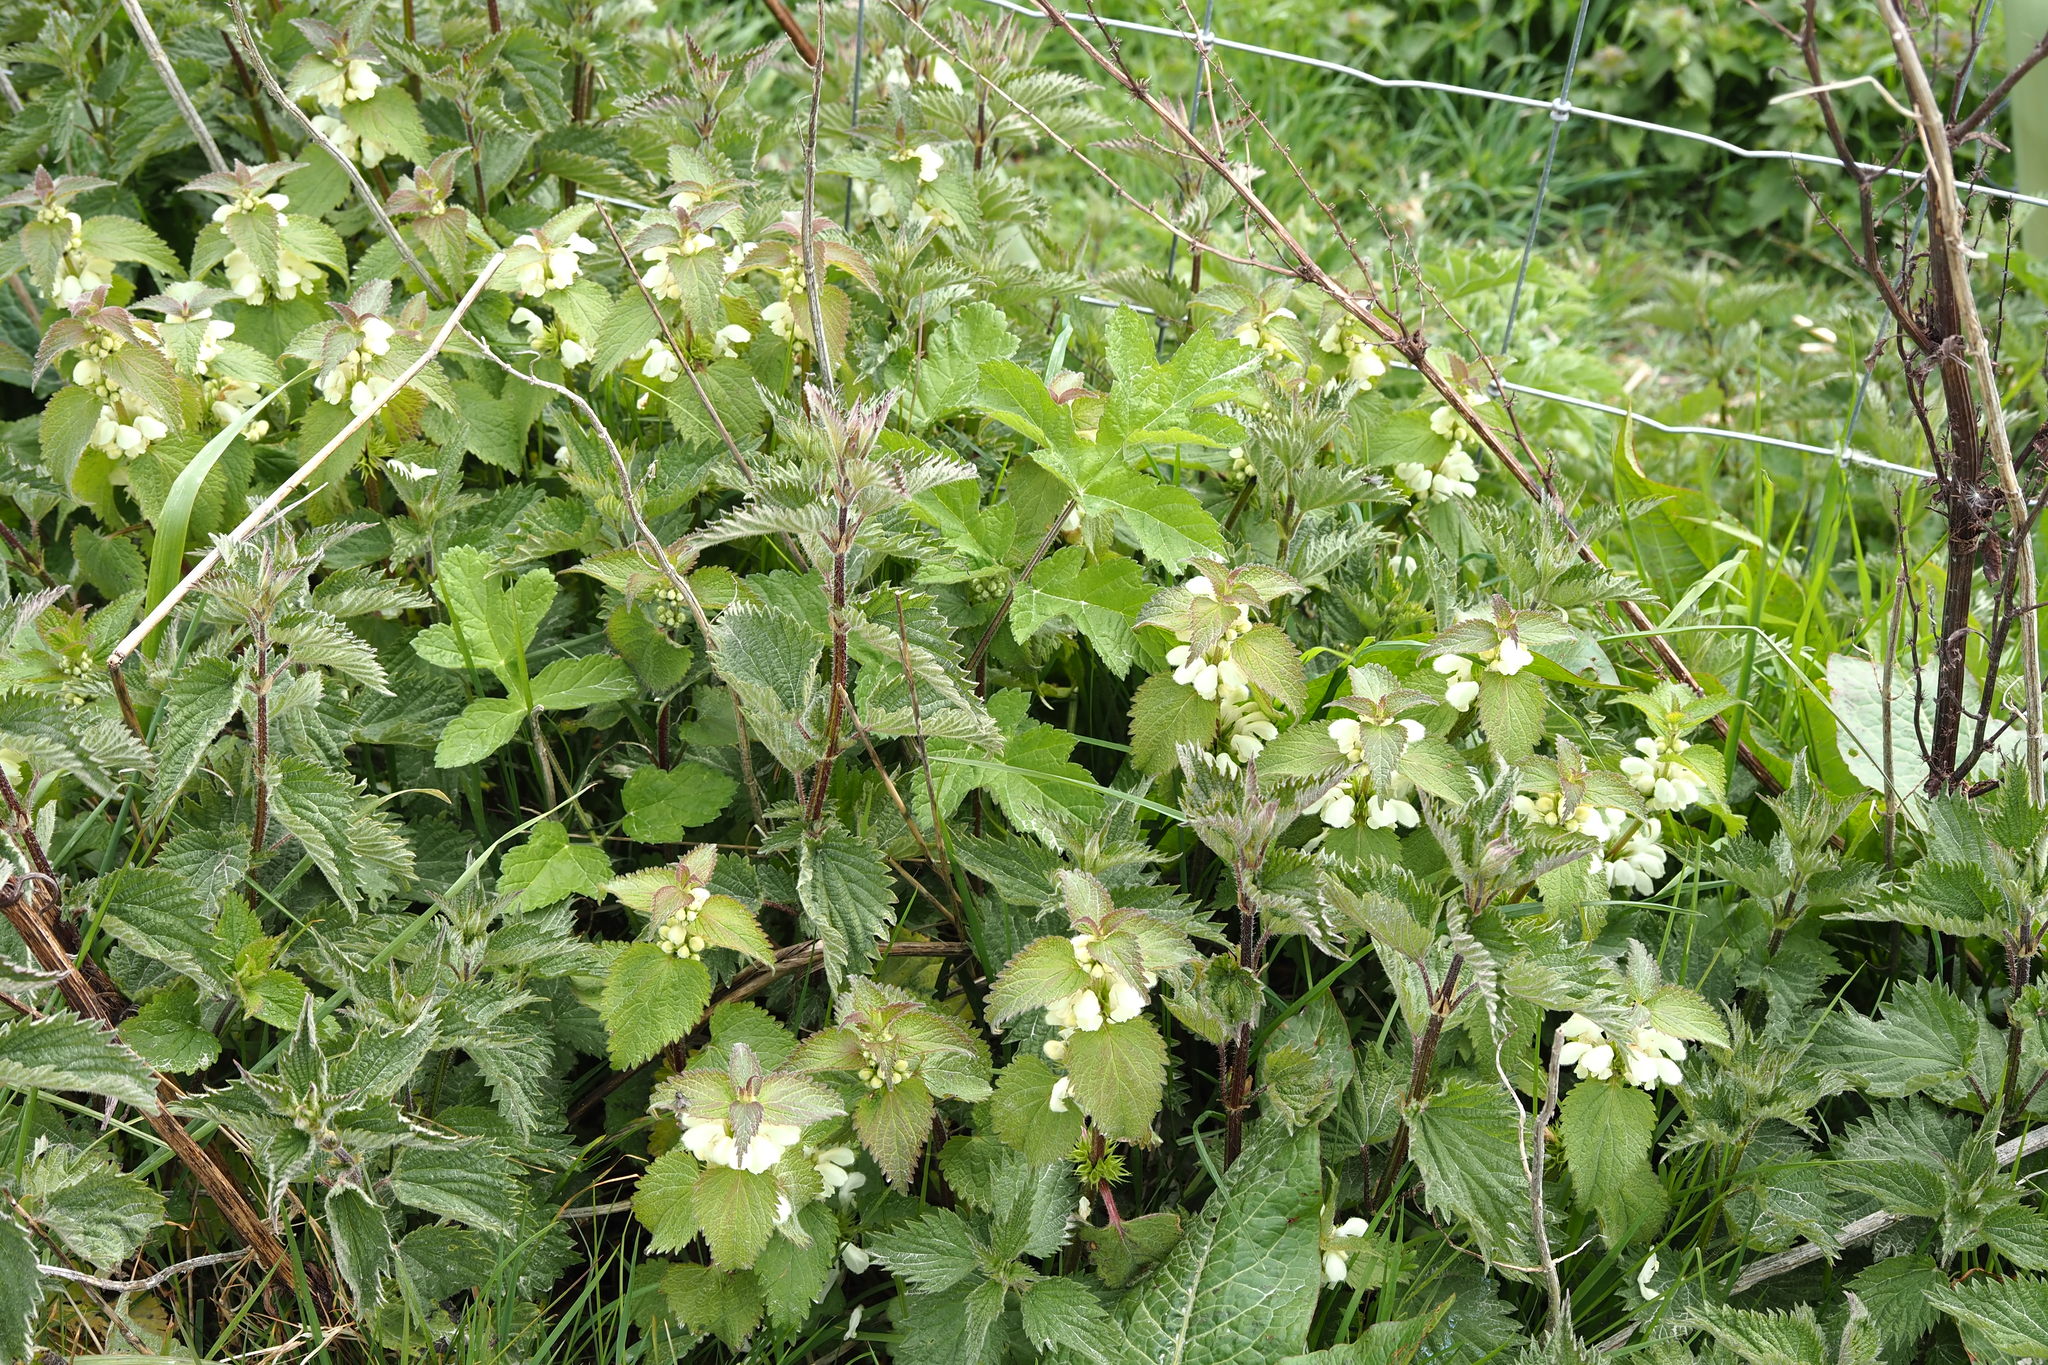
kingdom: Plantae
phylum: Tracheophyta
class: Magnoliopsida
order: Lamiales
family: Lamiaceae
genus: Lamium
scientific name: Lamium album
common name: White dead-nettle
